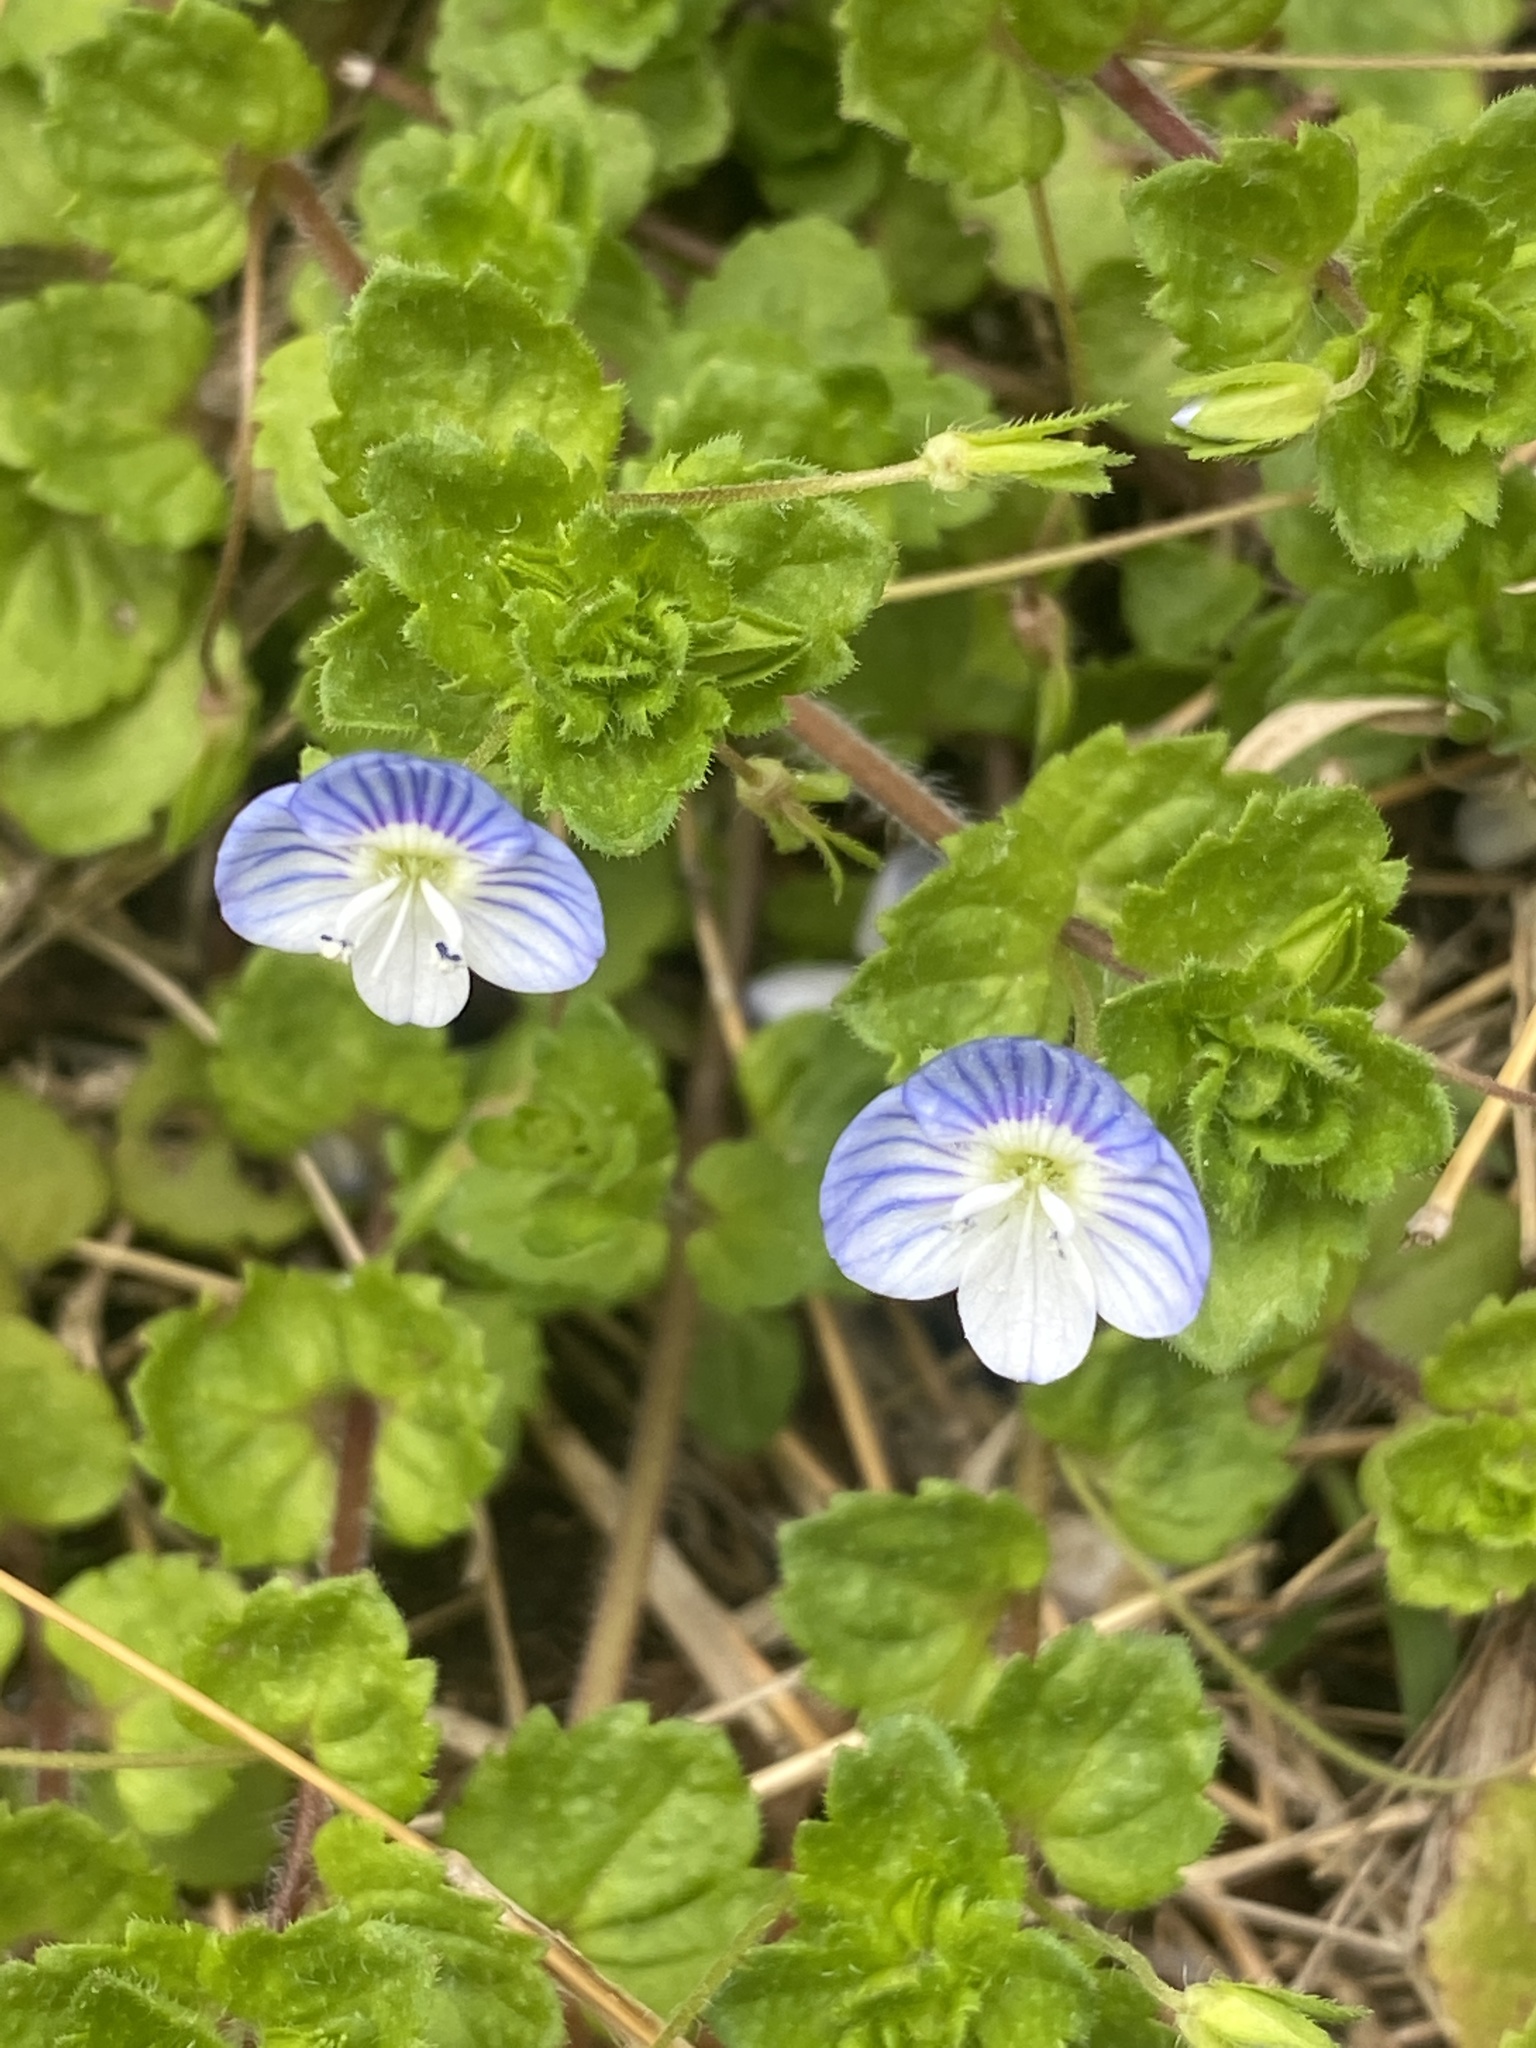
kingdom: Plantae
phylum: Tracheophyta
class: Magnoliopsida
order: Lamiales
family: Plantaginaceae
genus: Veronica
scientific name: Veronica persica
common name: Common field-speedwell
